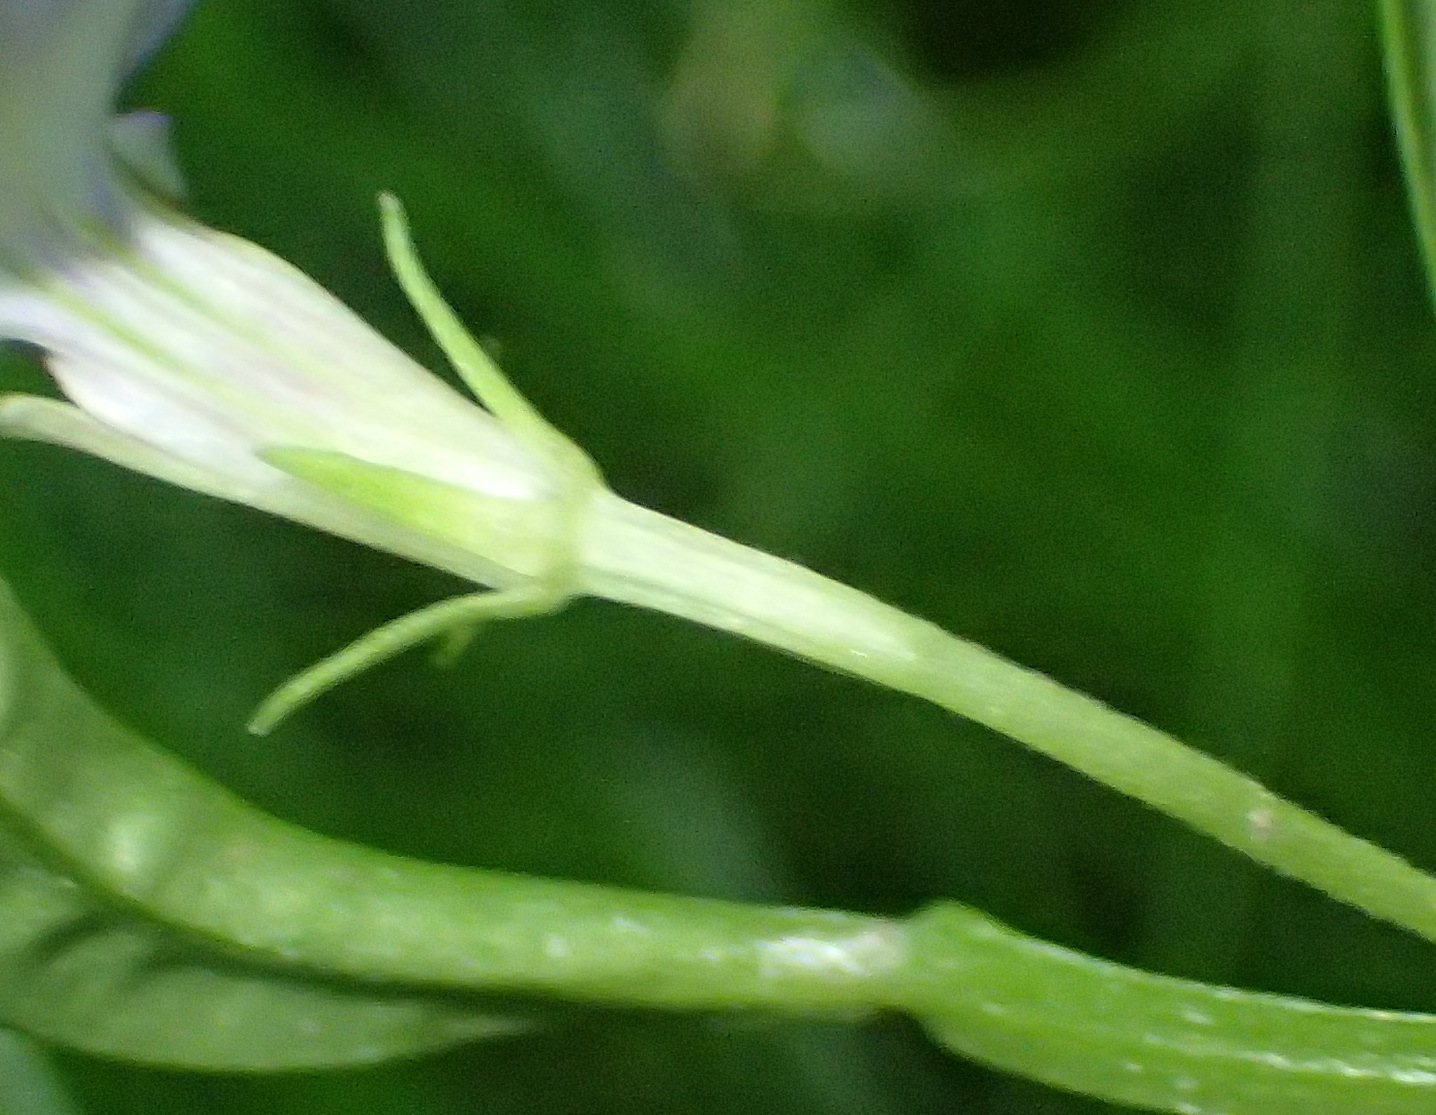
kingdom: Plantae
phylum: Tracheophyta
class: Magnoliopsida
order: Asterales
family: Campanulaceae
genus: Lobelia
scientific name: Lobelia anceps
